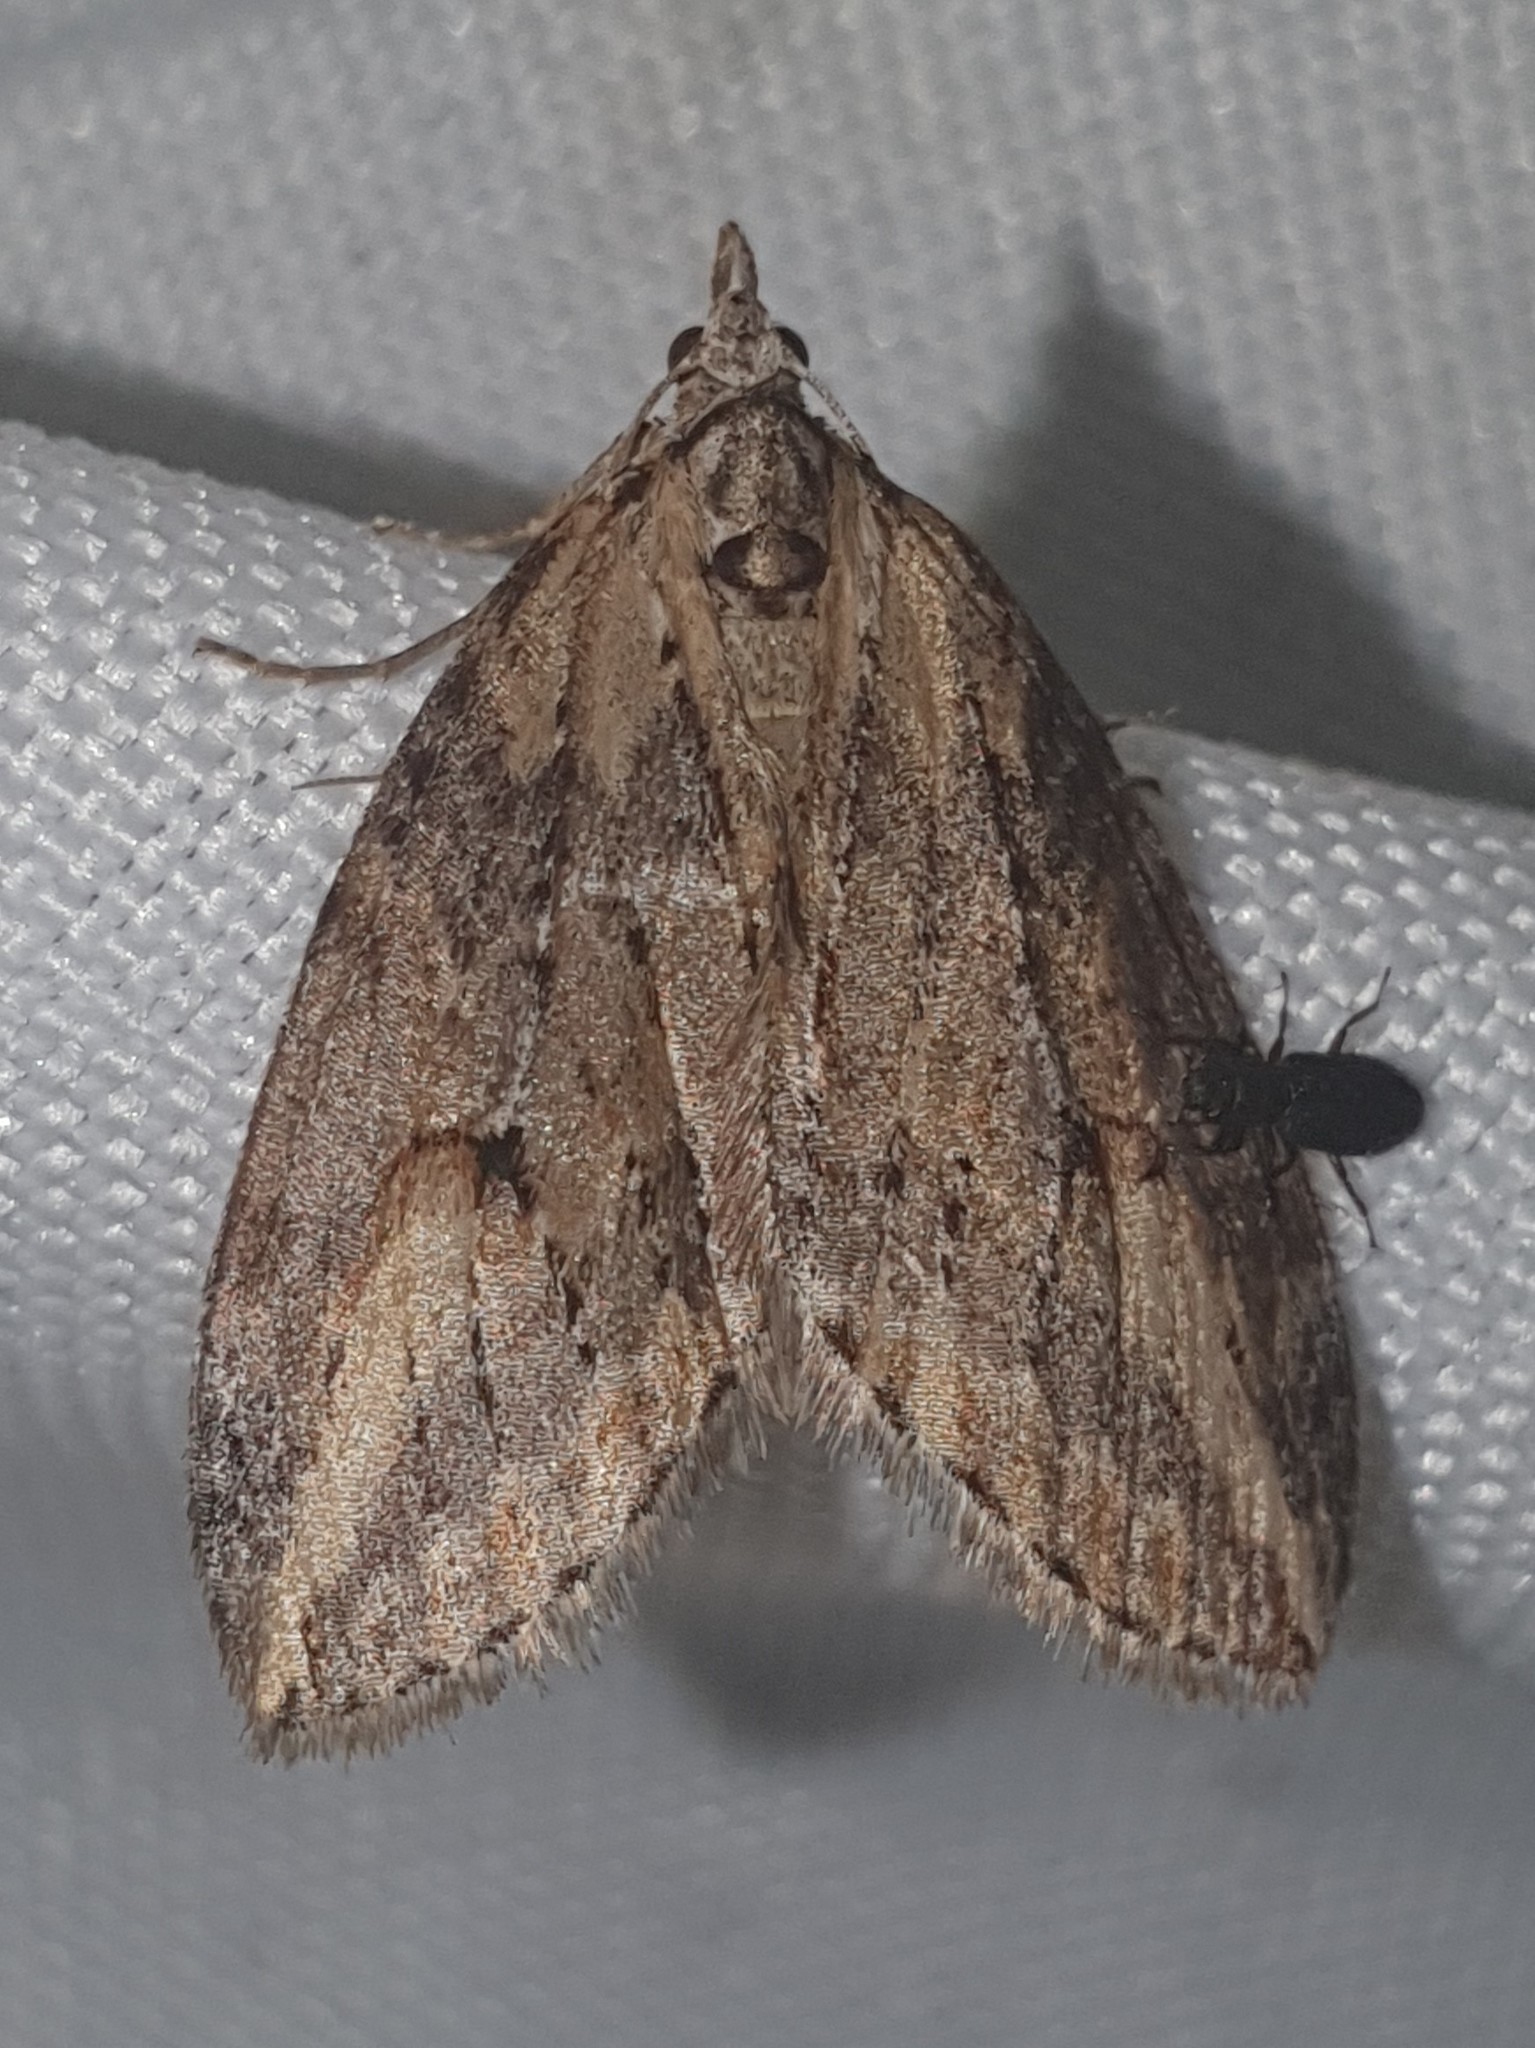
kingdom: Animalia
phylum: Arthropoda
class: Insecta
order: Lepidoptera
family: Geometridae
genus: Chesias
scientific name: Chesias isabella
